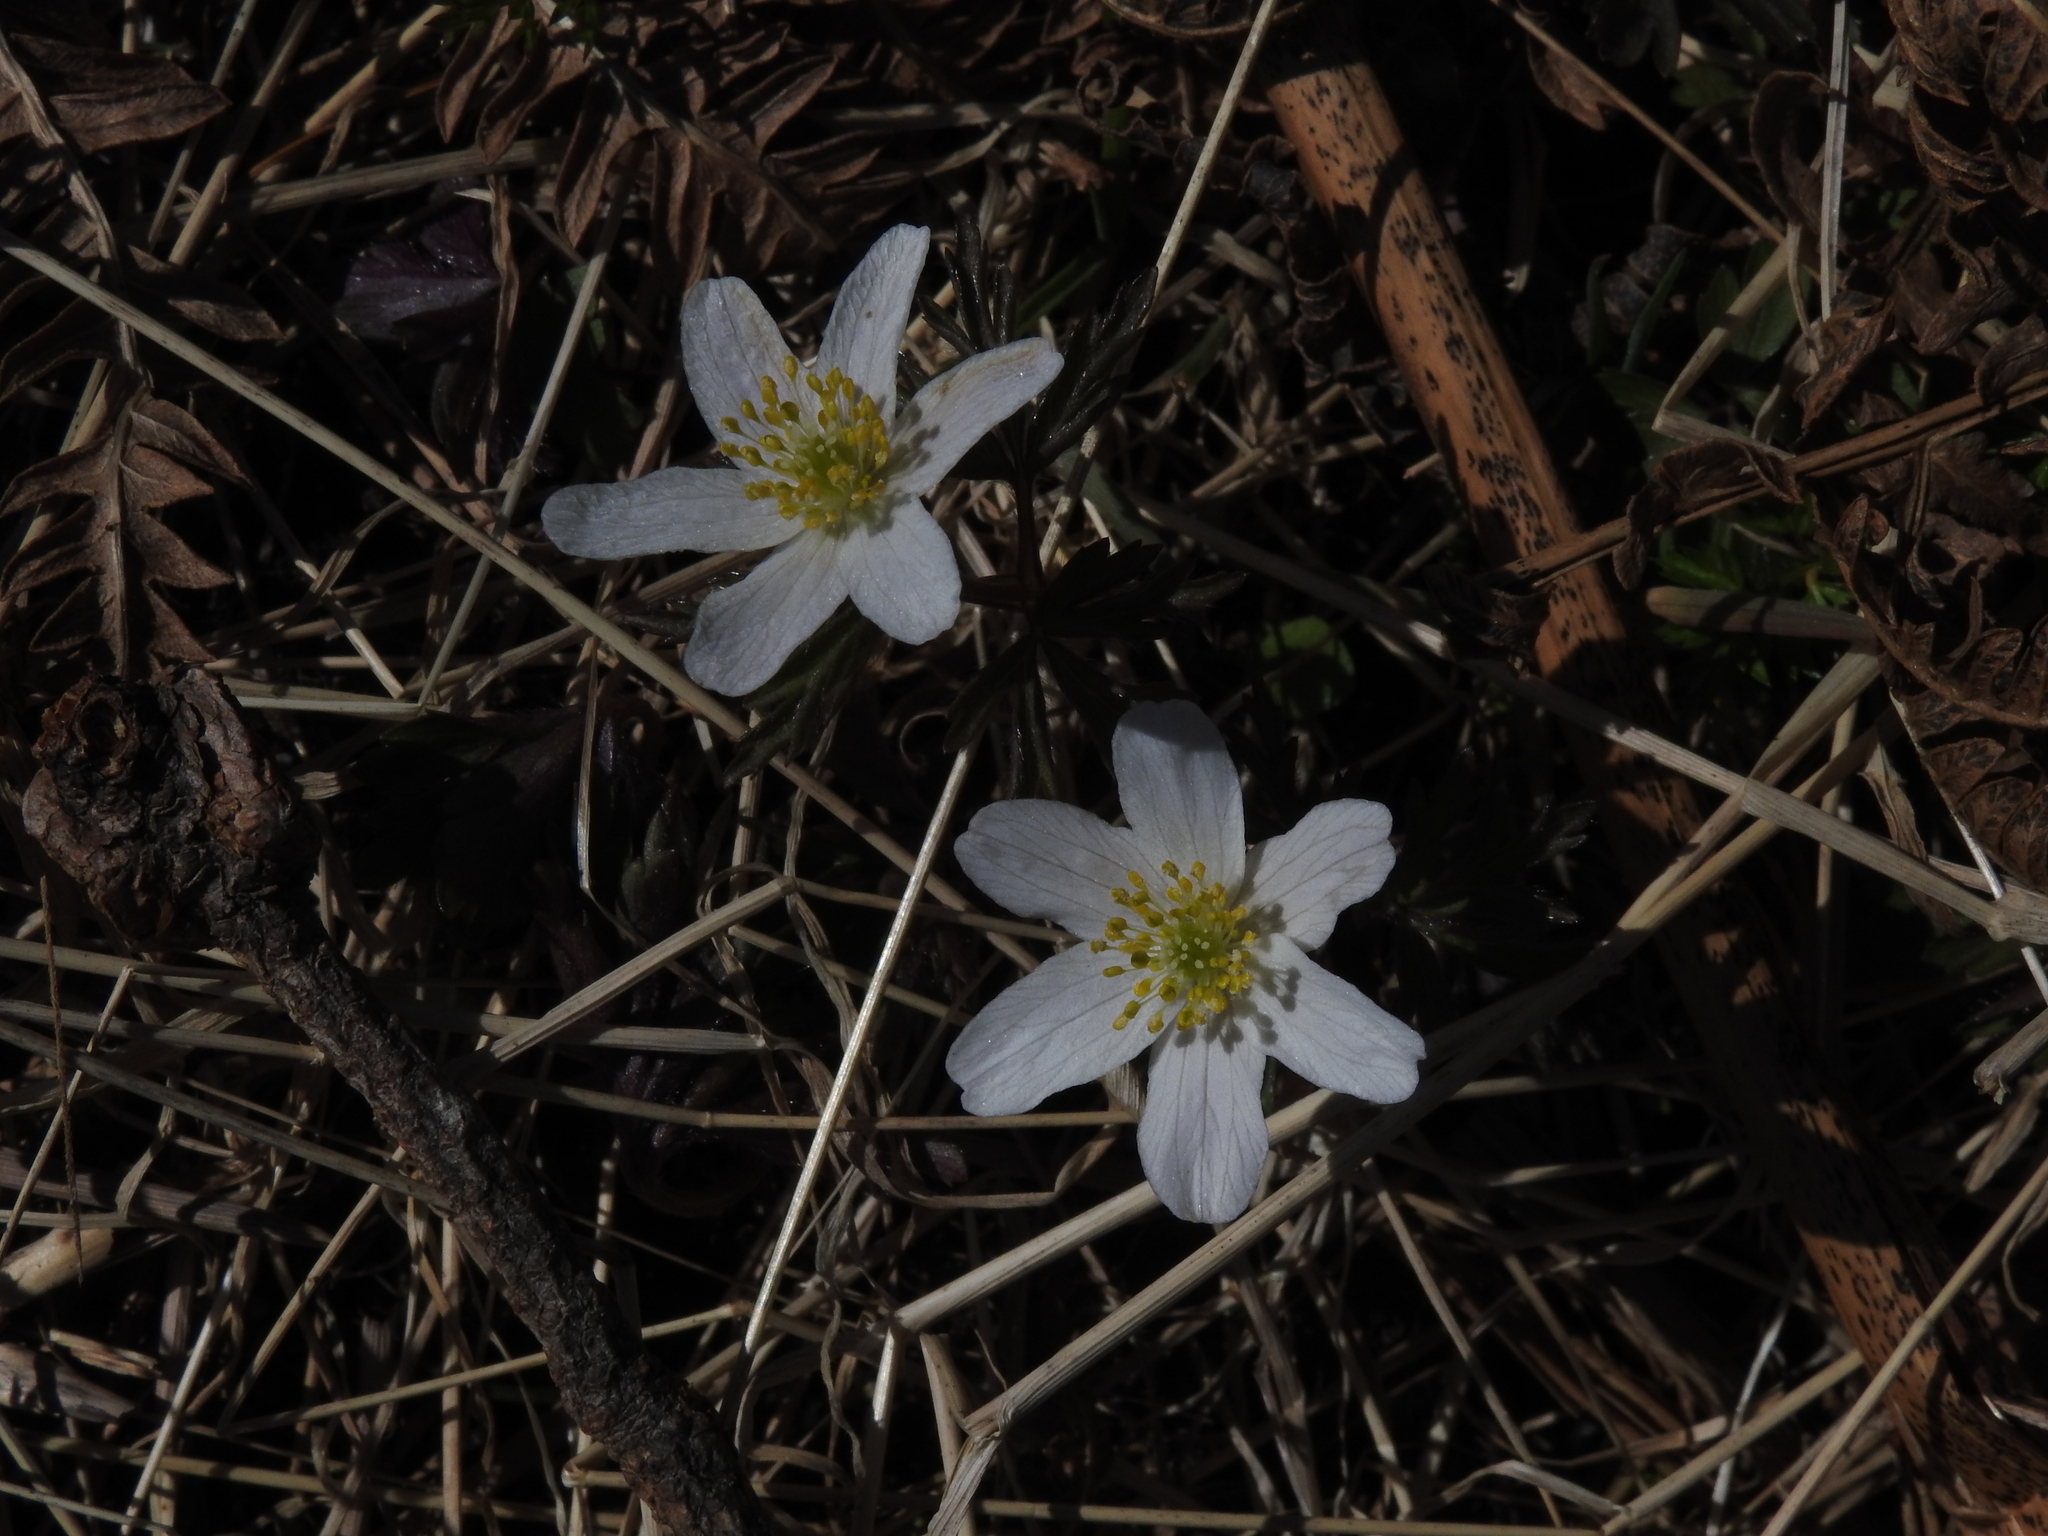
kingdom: Plantae
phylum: Tracheophyta
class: Magnoliopsida
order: Ranunculales
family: Ranunculaceae
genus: Anemone
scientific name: Anemone nemorosa
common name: Wood anemone
